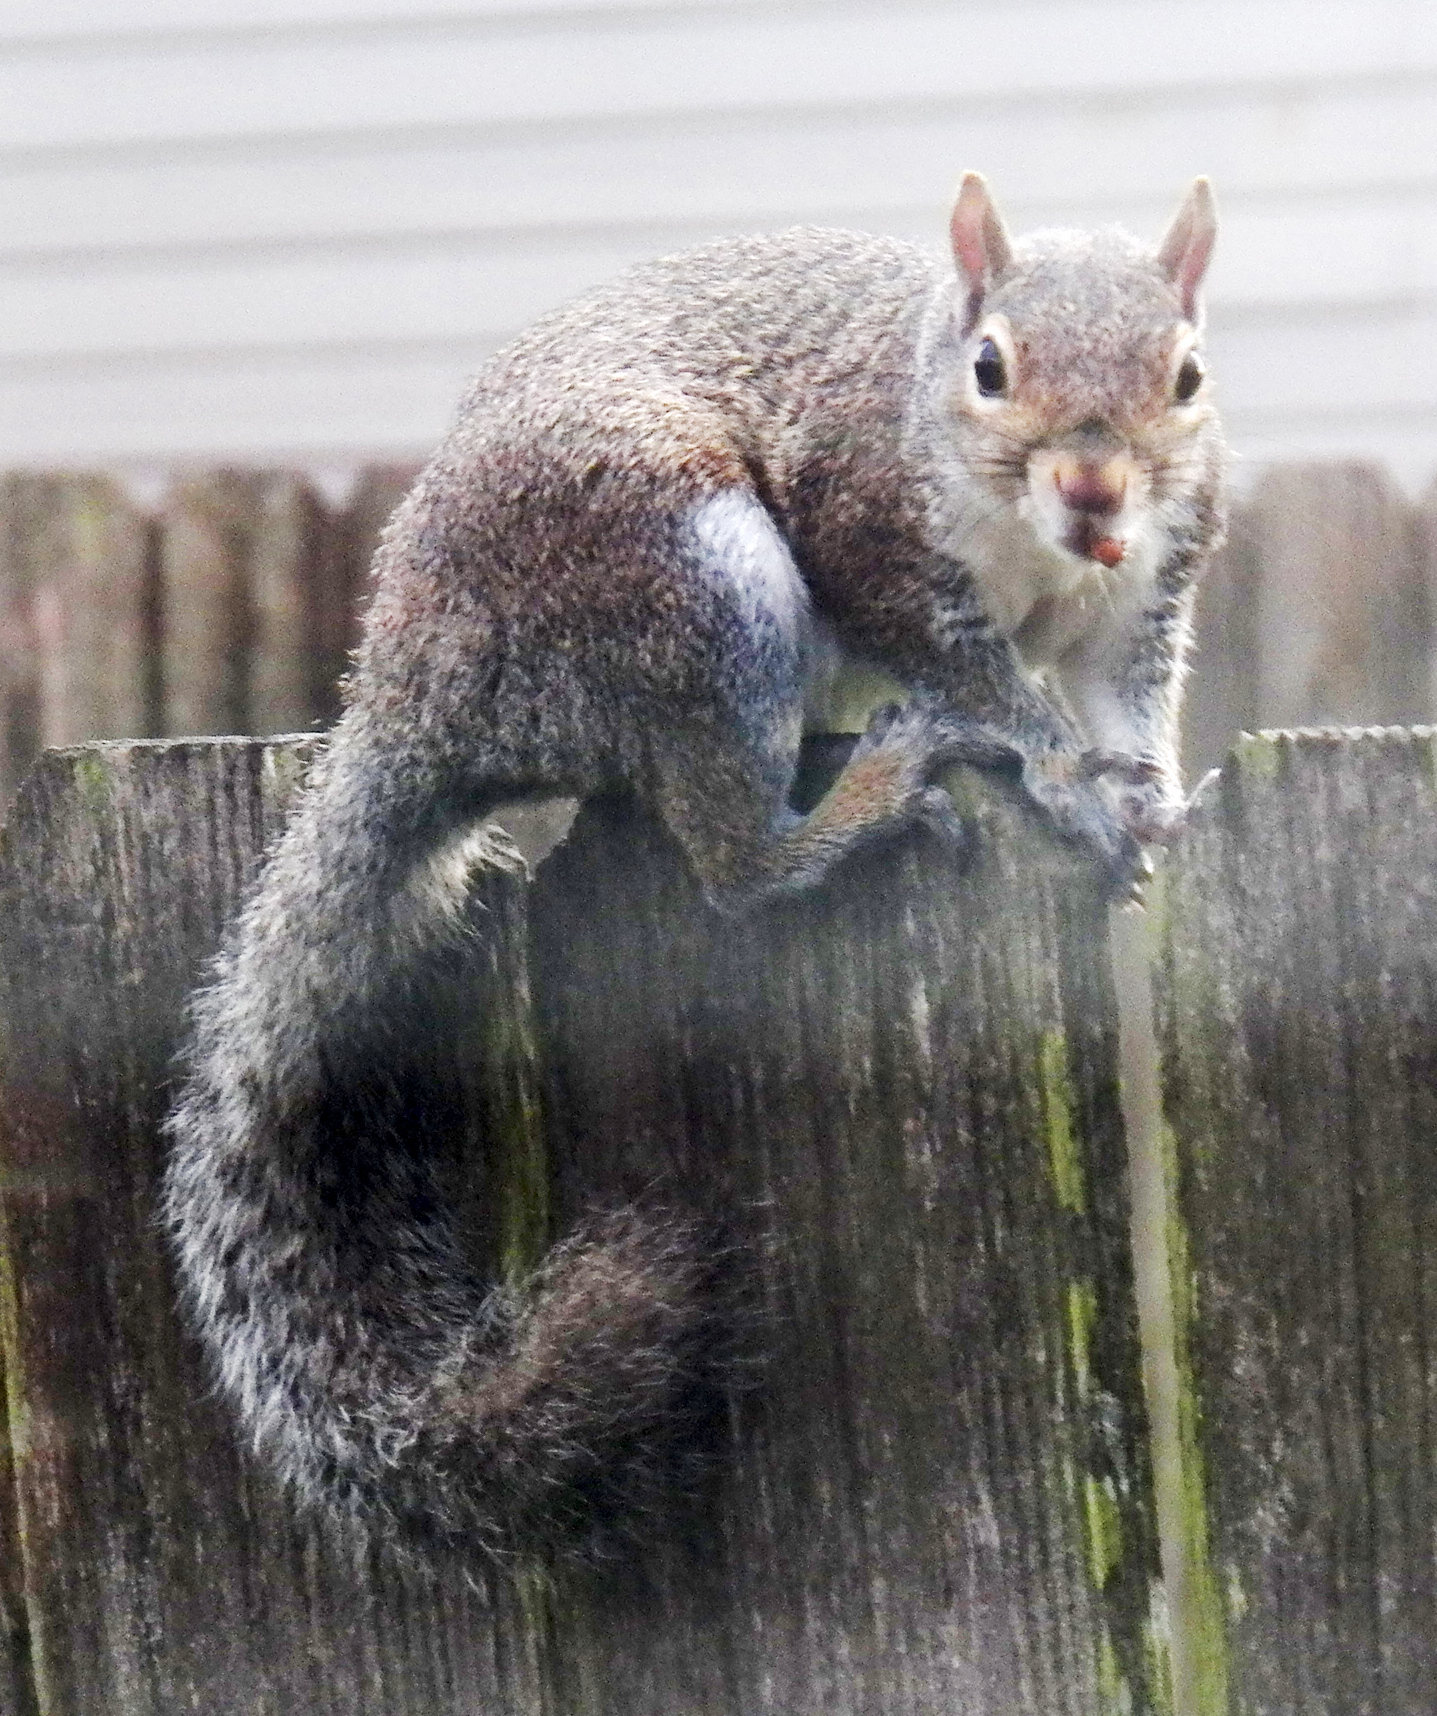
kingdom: Animalia
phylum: Chordata
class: Mammalia
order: Rodentia
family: Sciuridae
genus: Sciurus
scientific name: Sciurus carolinensis
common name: Eastern gray squirrel
